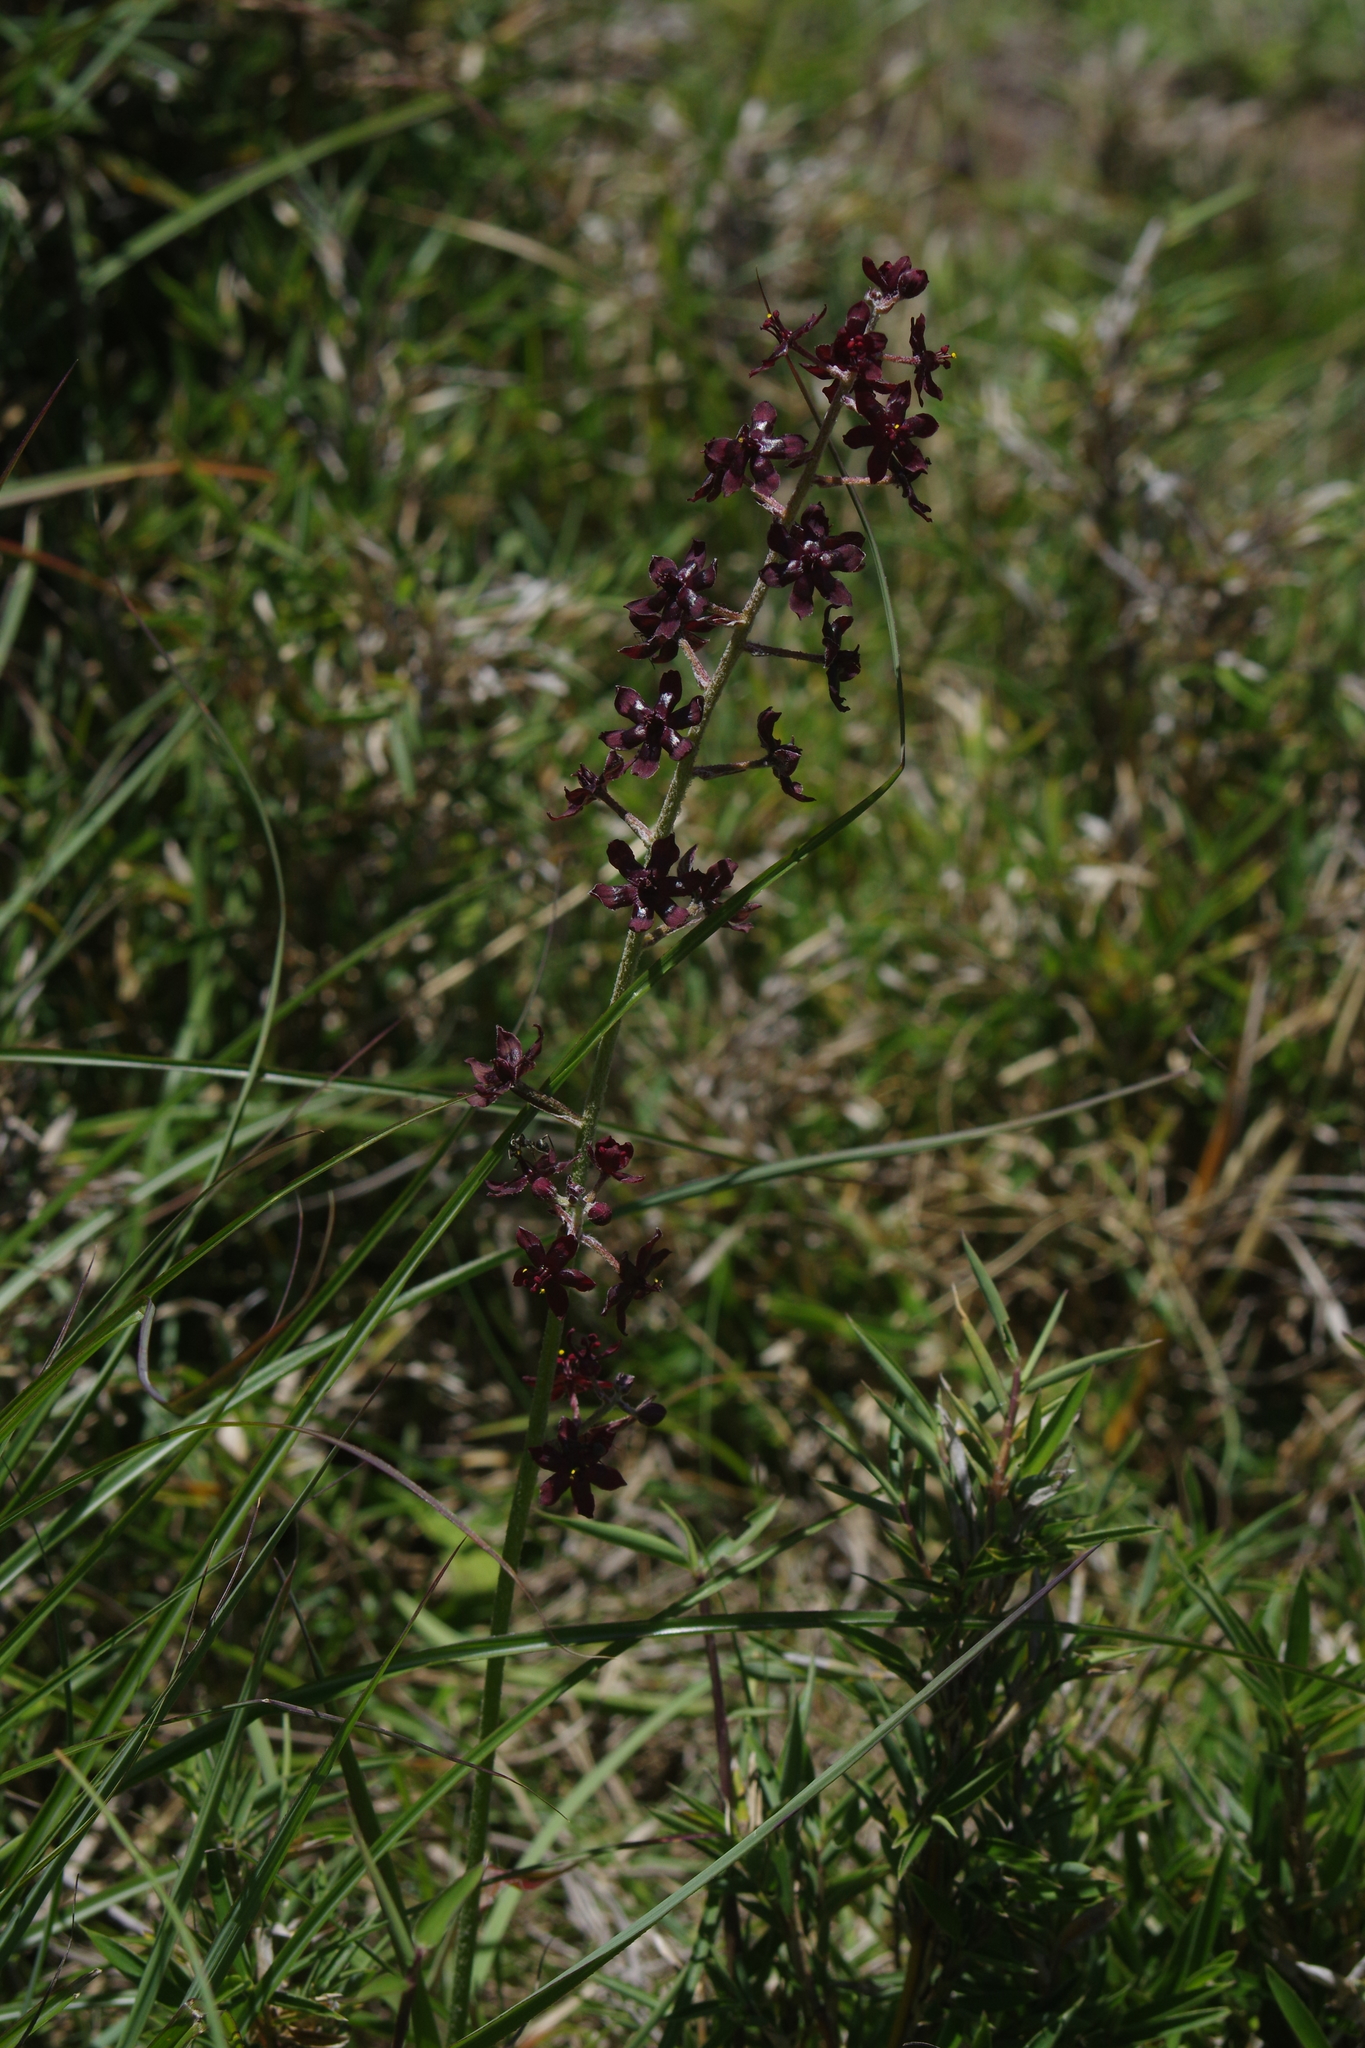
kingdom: Plantae
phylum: Tracheophyta
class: Liliopsida
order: Liliales
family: Melanthiaceae
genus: Veratrum
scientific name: Veratrum formosanum
